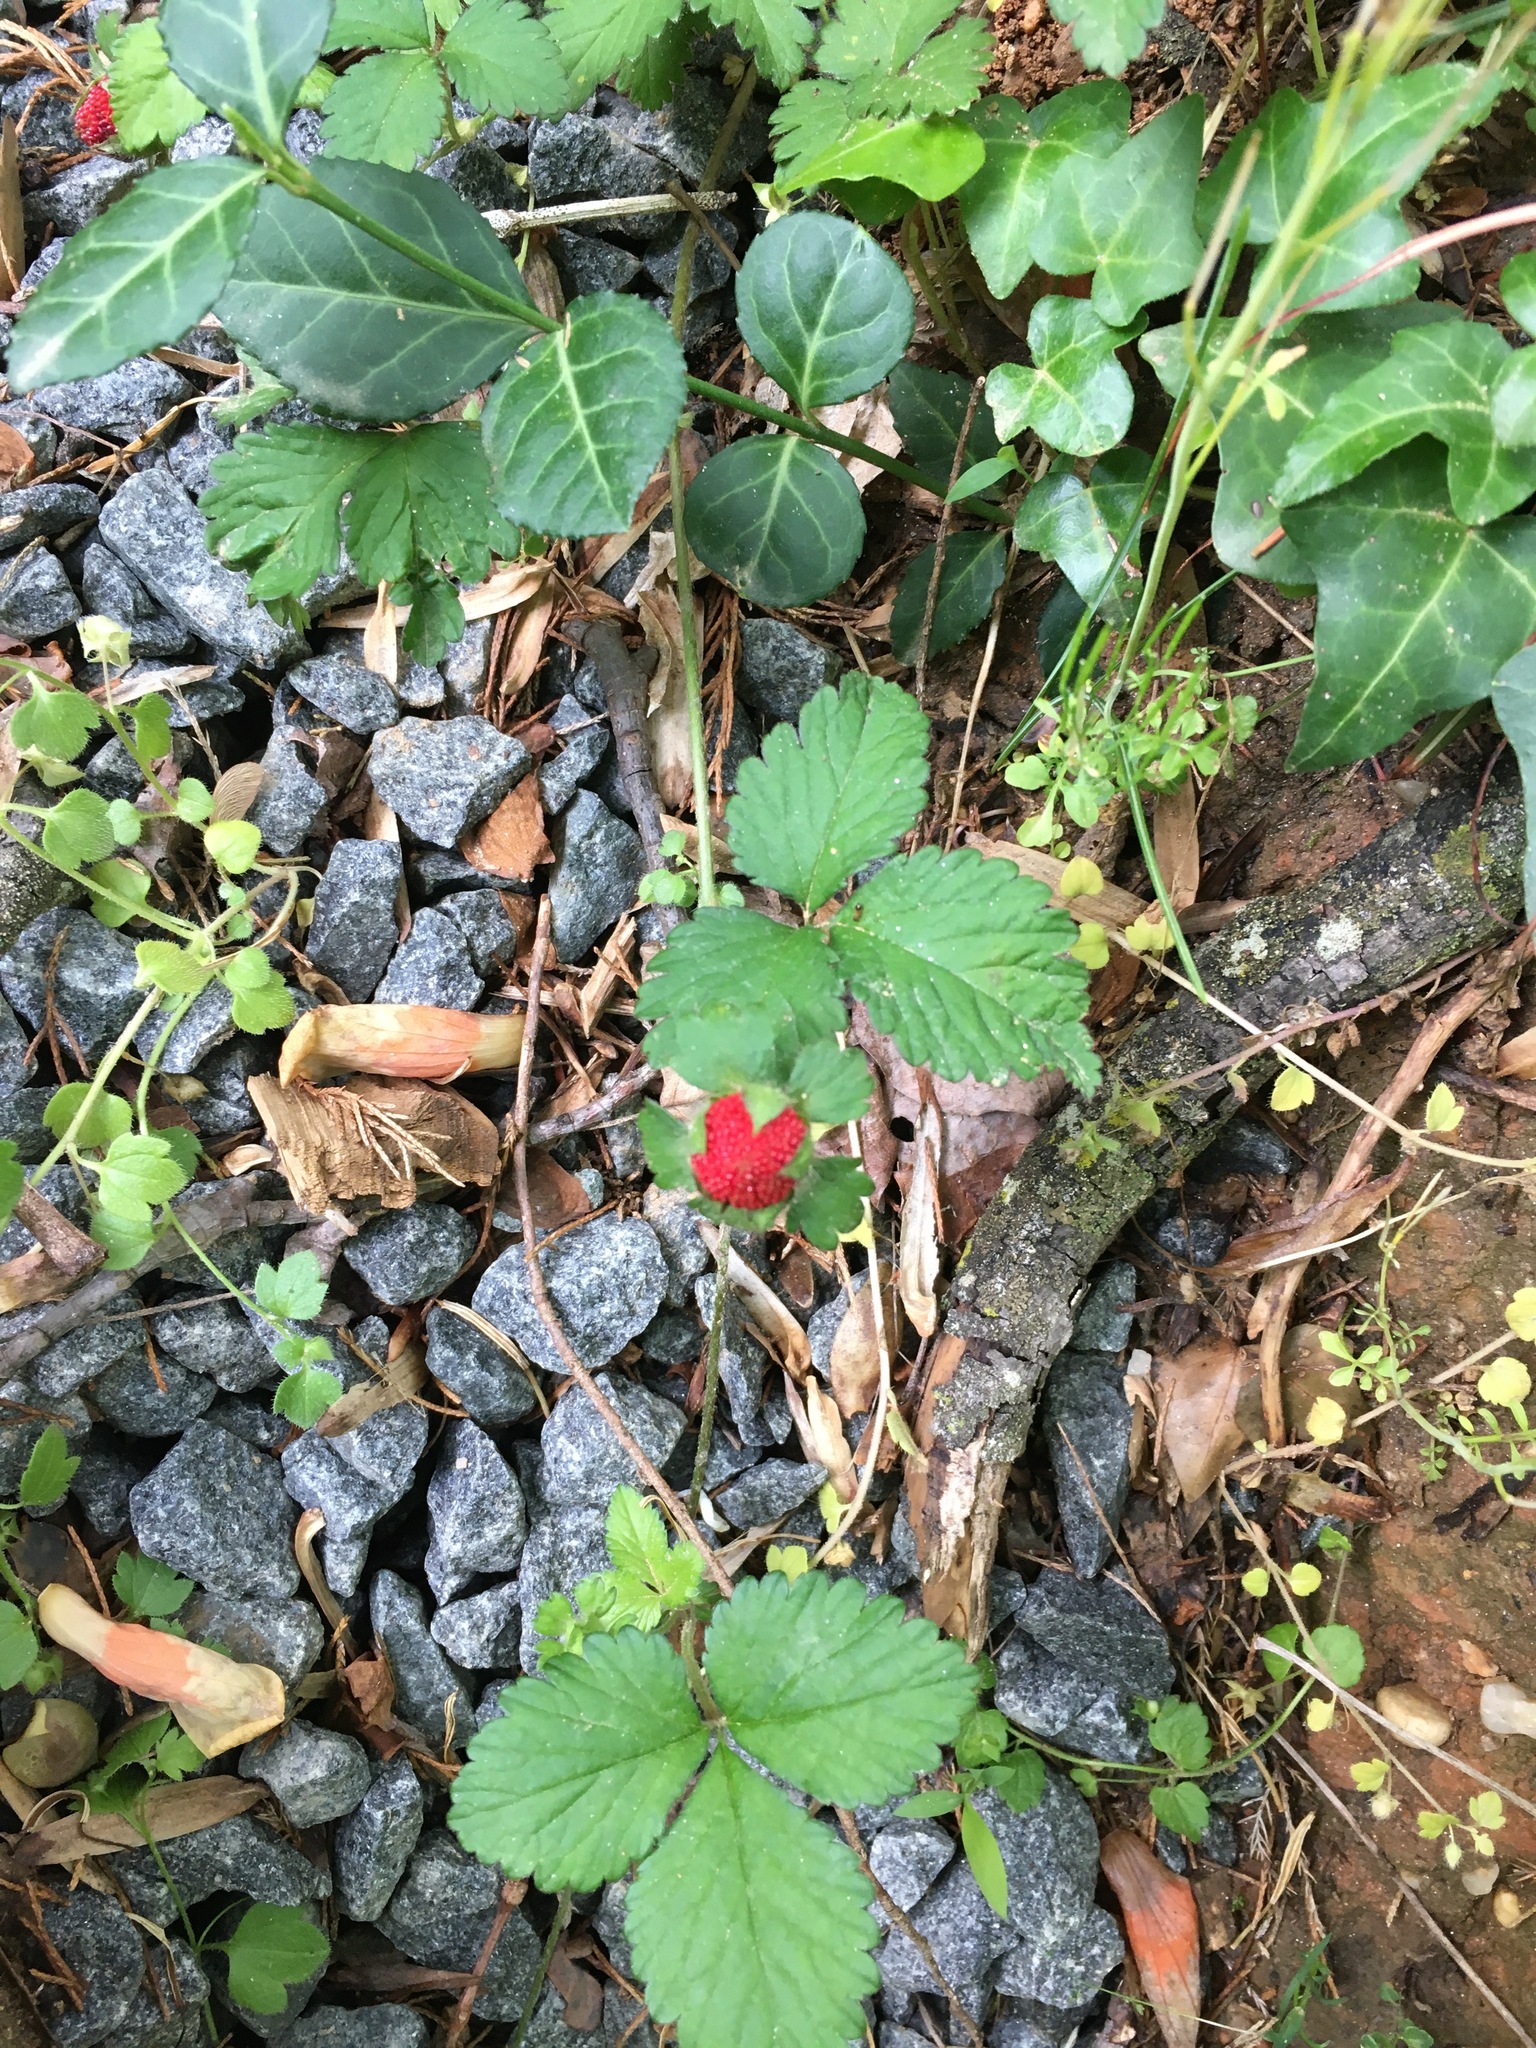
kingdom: Plantae
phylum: Tracheophyta
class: Magnoliopsida
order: Rosales
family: Rosaceae
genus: Potentilla
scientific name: Potentilla indica
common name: Yellow-flowered strawberry
